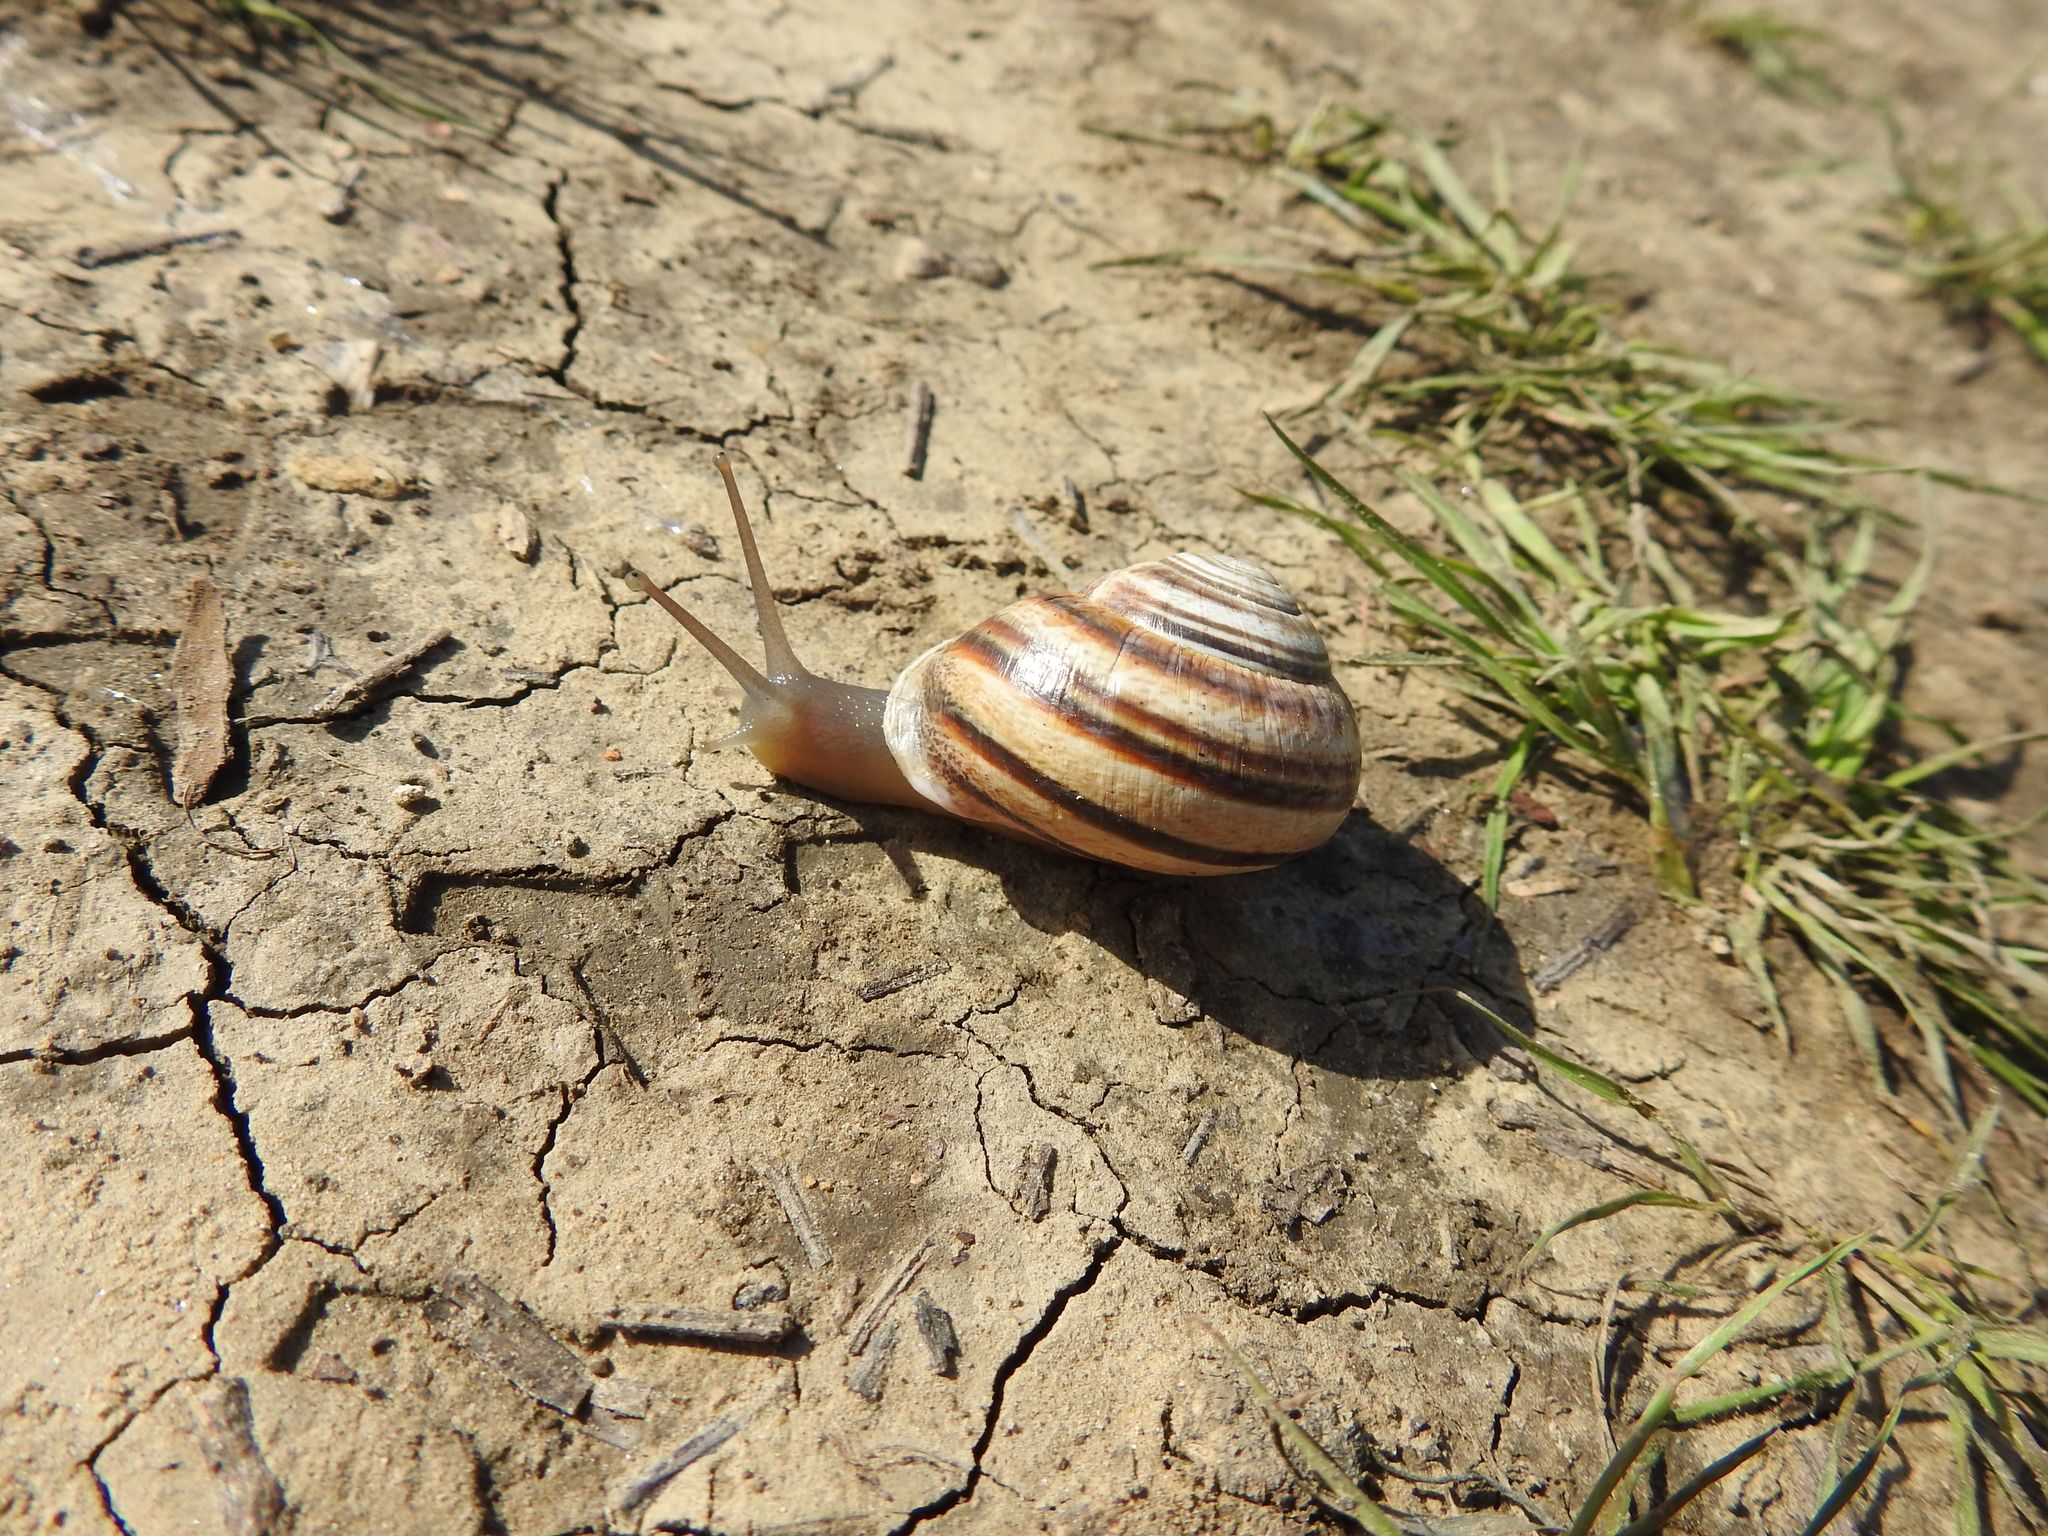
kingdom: Animalia
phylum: Mollusca
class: Gastropoda
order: Stylommatophora
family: Helicidae
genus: Otala
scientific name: Otala lactea
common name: Milk snail
